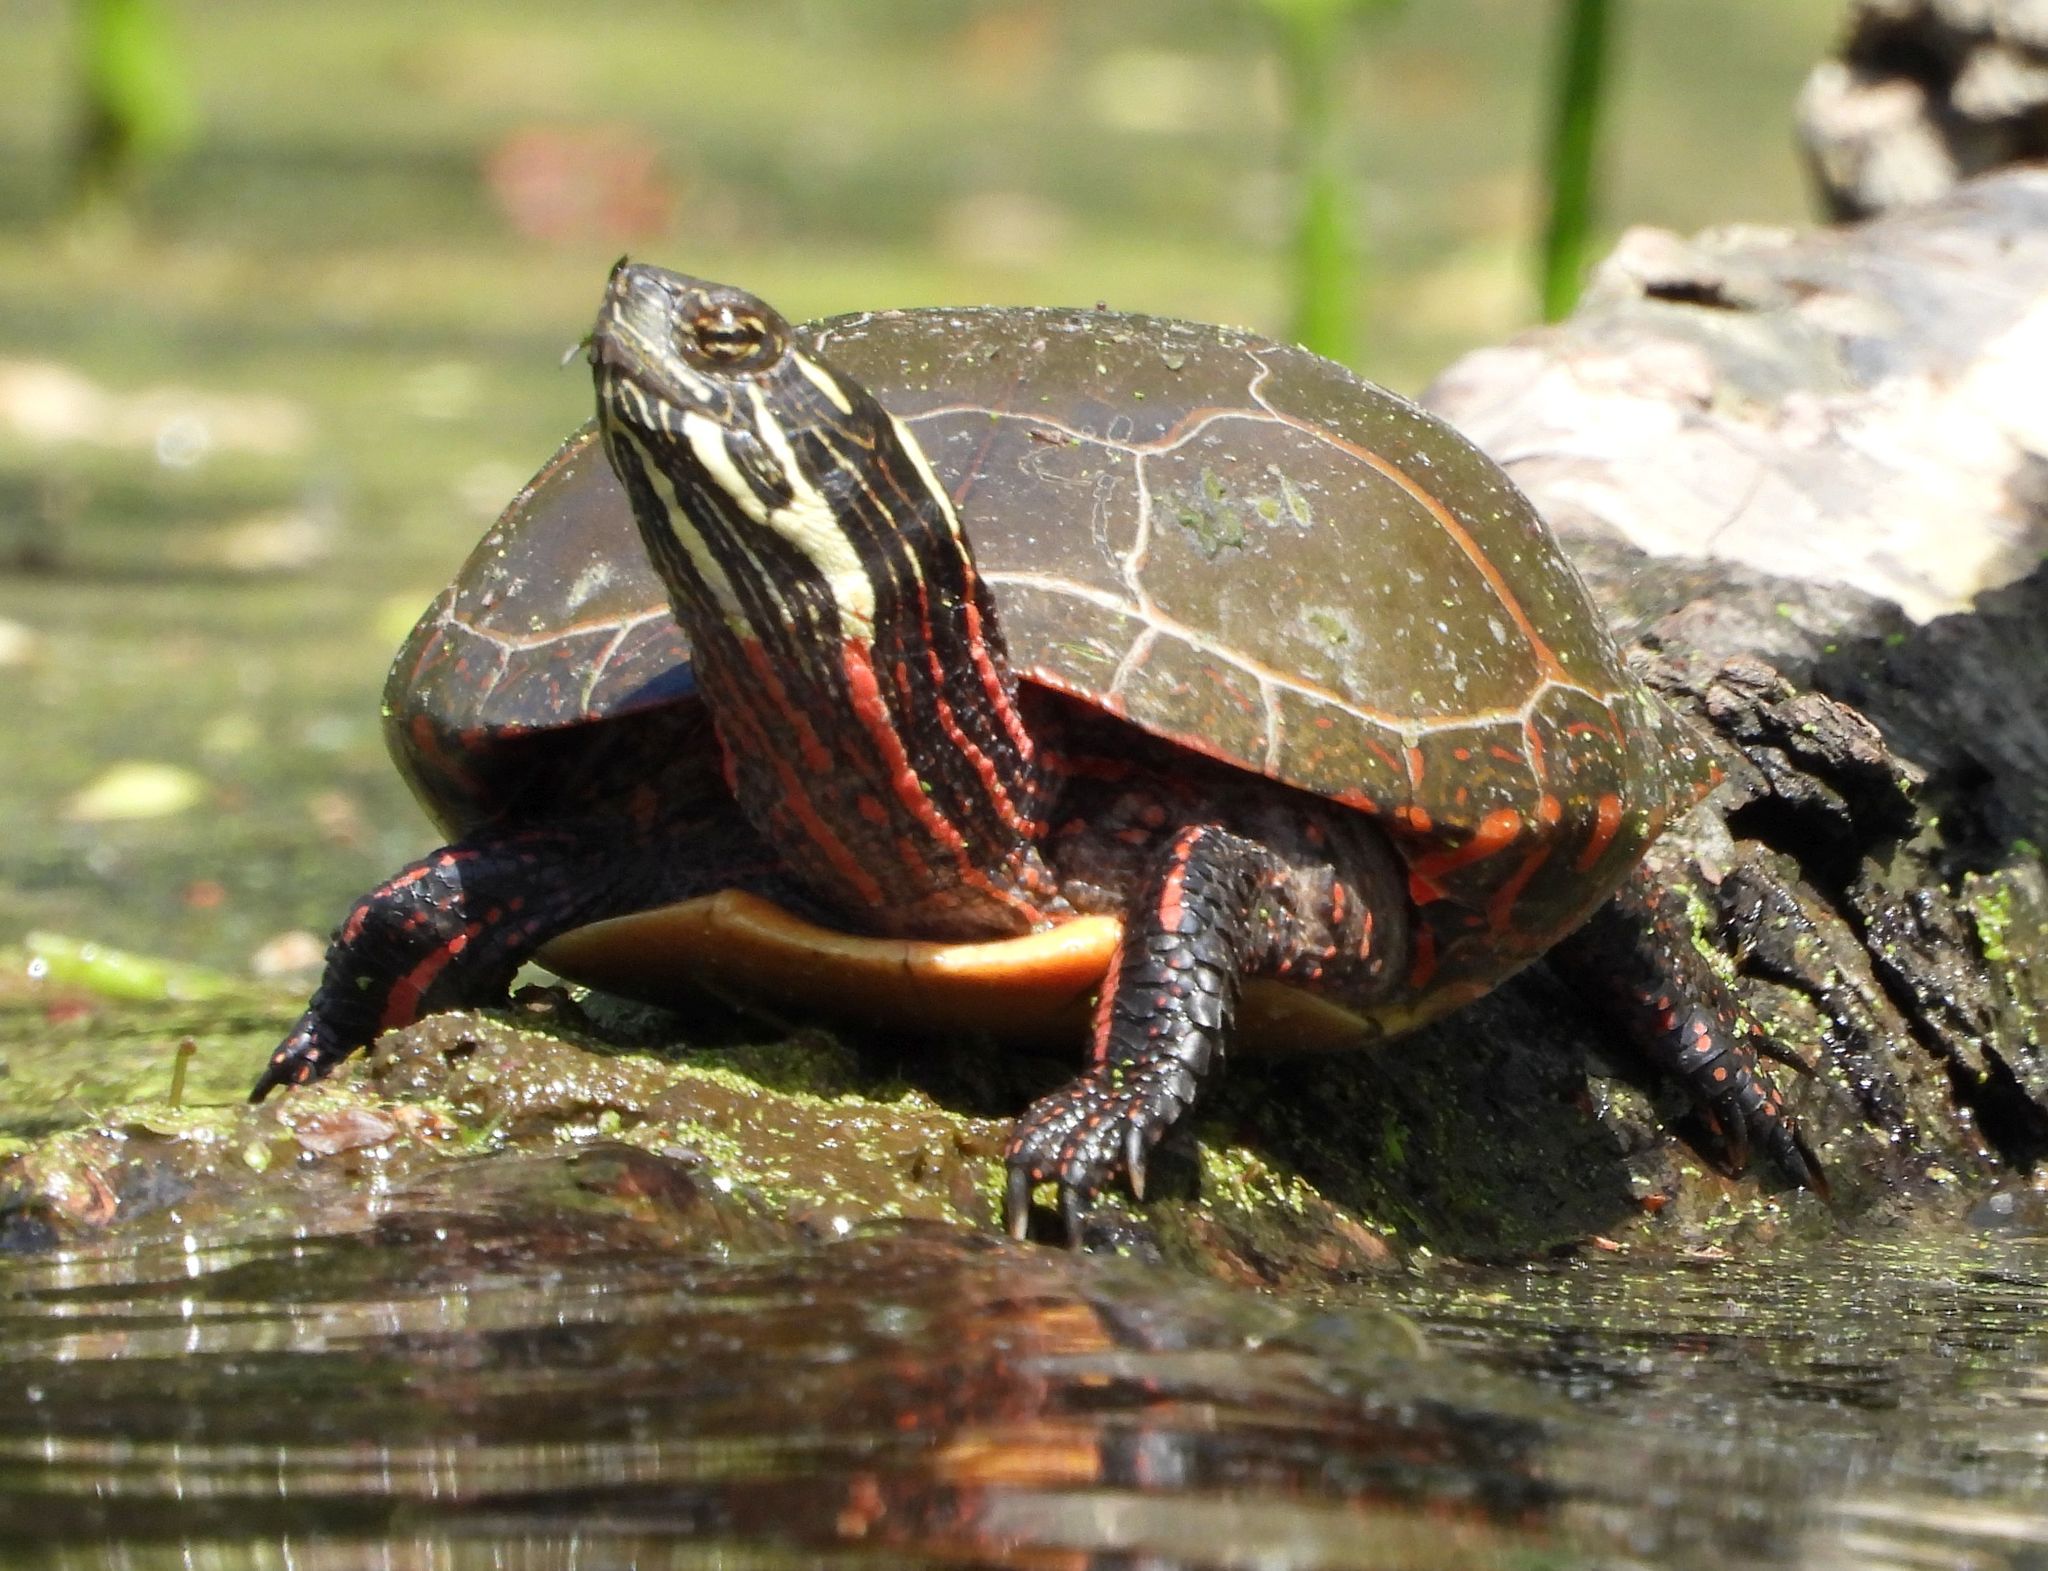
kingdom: Animalia
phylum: Chordata
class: Testudines
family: Emydidae
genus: Chrysemys
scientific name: Chrysemys picta
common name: Painted turtle
